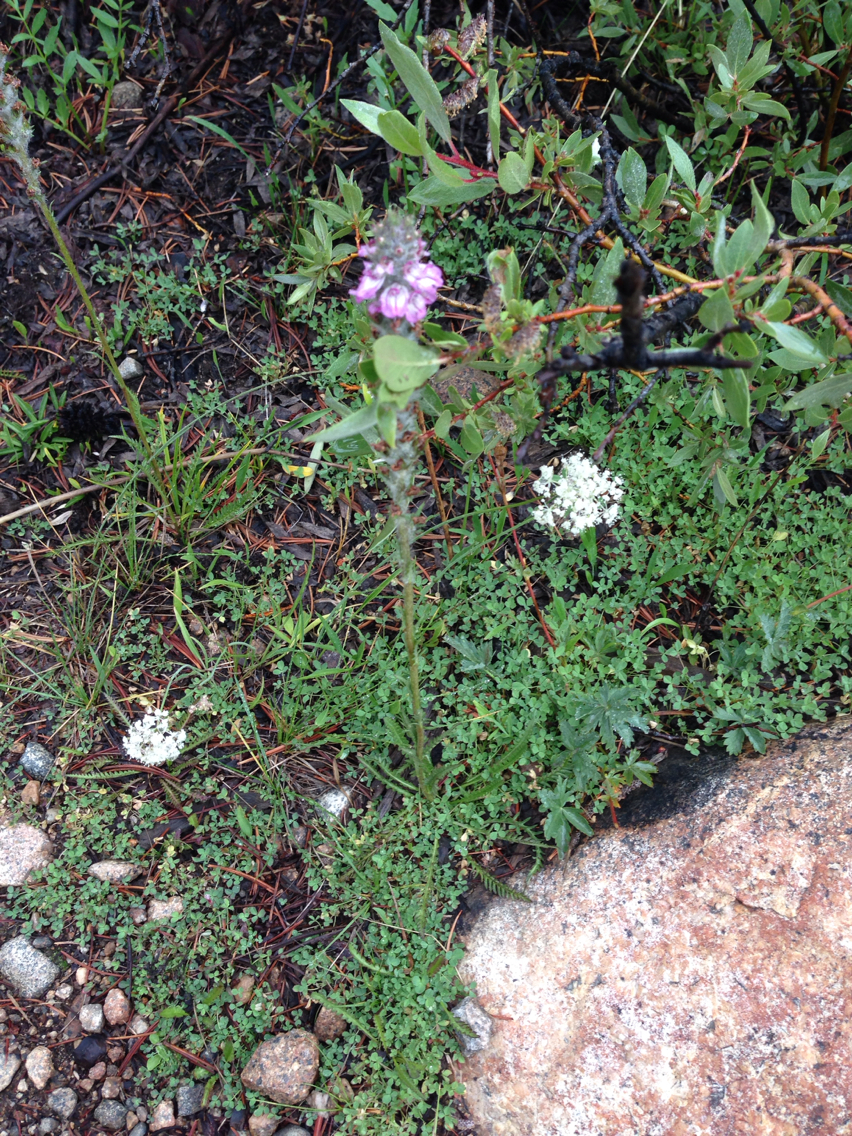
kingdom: Plantae
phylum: Tracheophyta
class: Magnoliopsida
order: Lamiales
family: Orobanchaceae
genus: Pedicularis
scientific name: Pedicularis attollens
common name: Slender pedicularis
